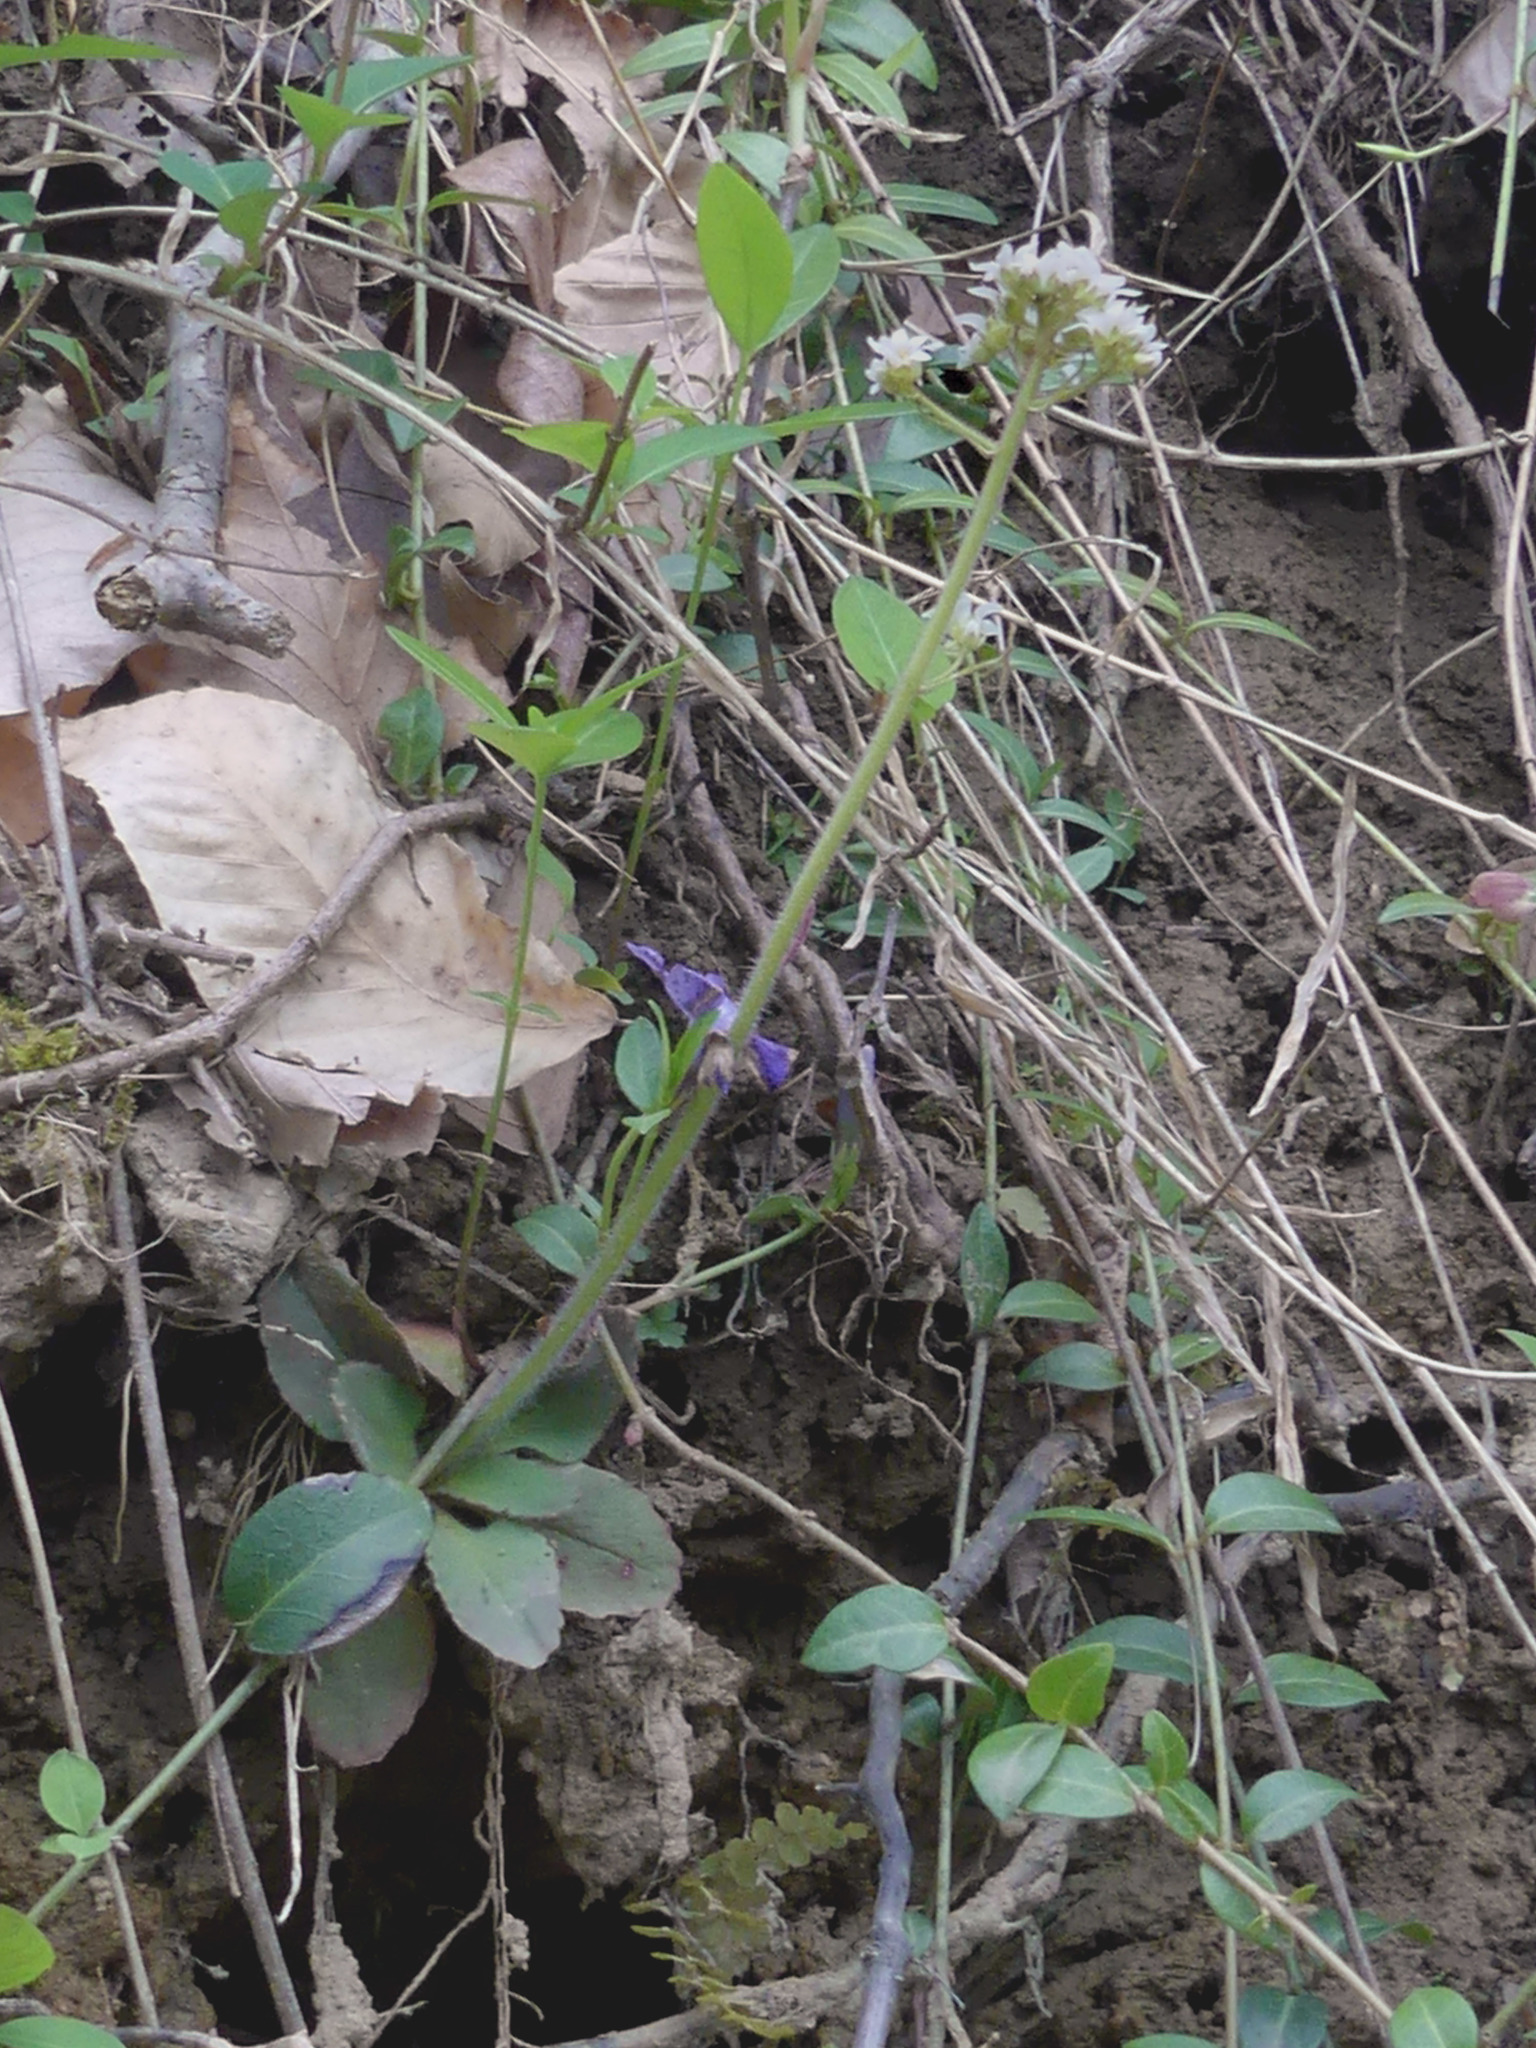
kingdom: Plantae
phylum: Tracheophyta
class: Magnoliopsida
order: Saxifragales
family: Saxifragaceae
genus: Micranthes
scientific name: Micranthes virginiensis
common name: Early saxifrage
